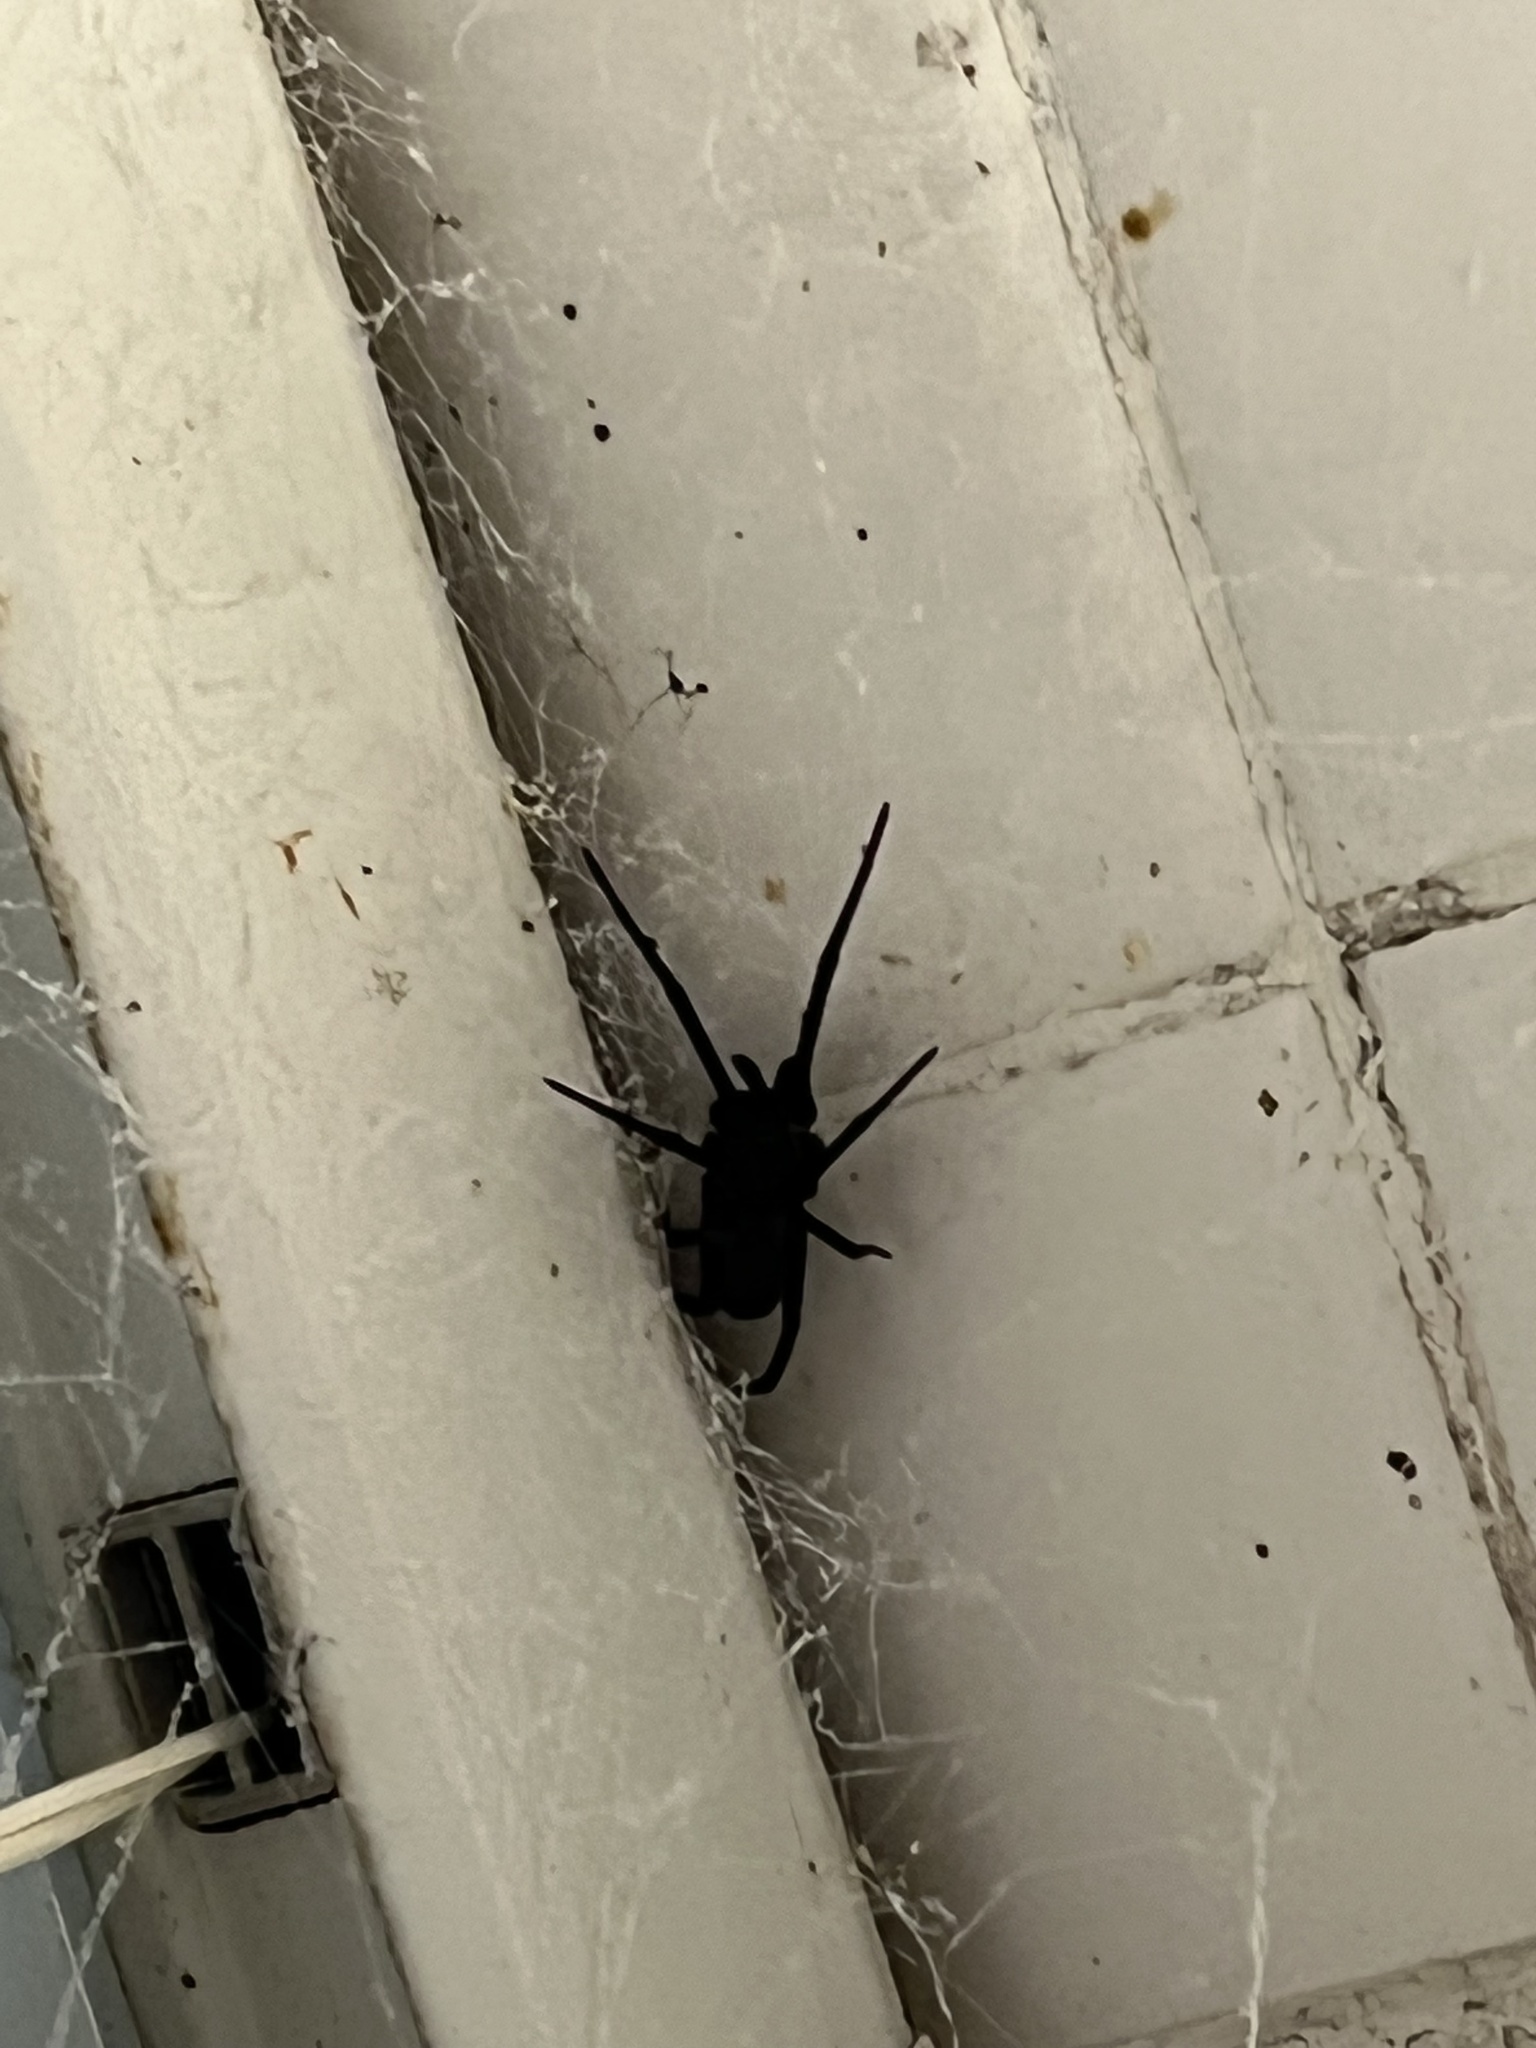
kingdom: Animalia
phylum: Arthropoda
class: Arachnida
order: Araneae
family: Filistatidae
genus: Kukulcania
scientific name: Kukulcania hibernalis
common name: Crevice weaver
